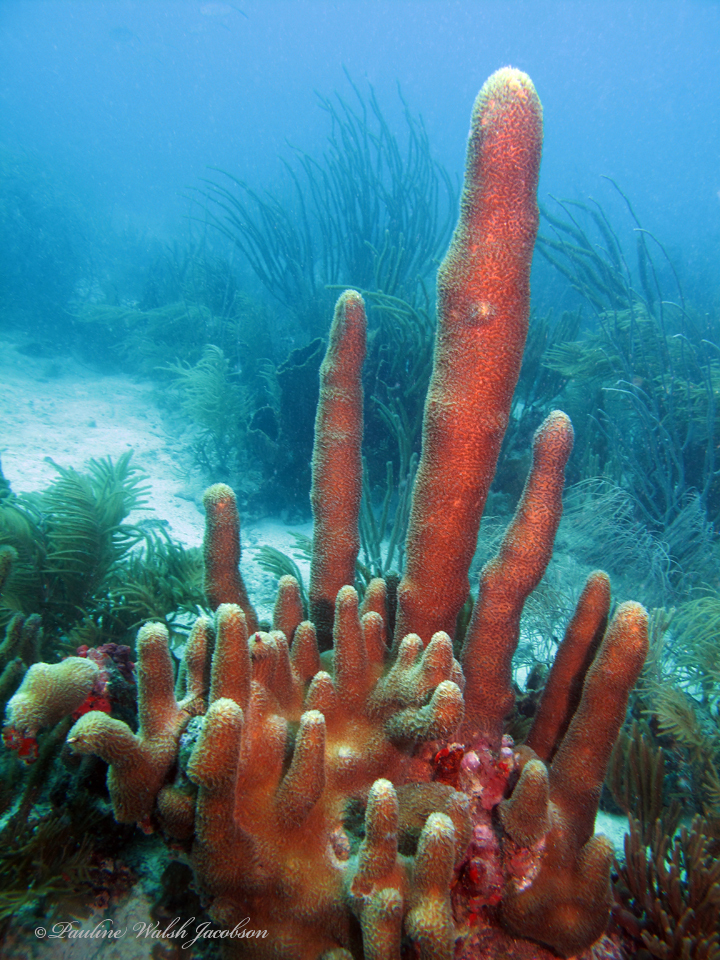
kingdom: Animalia
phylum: Cnidaria
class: Anthozoa
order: Scleractinia
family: Meandrinidae
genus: Dendrogyra
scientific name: Dendrogyra cylindrus
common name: Pillar coral
